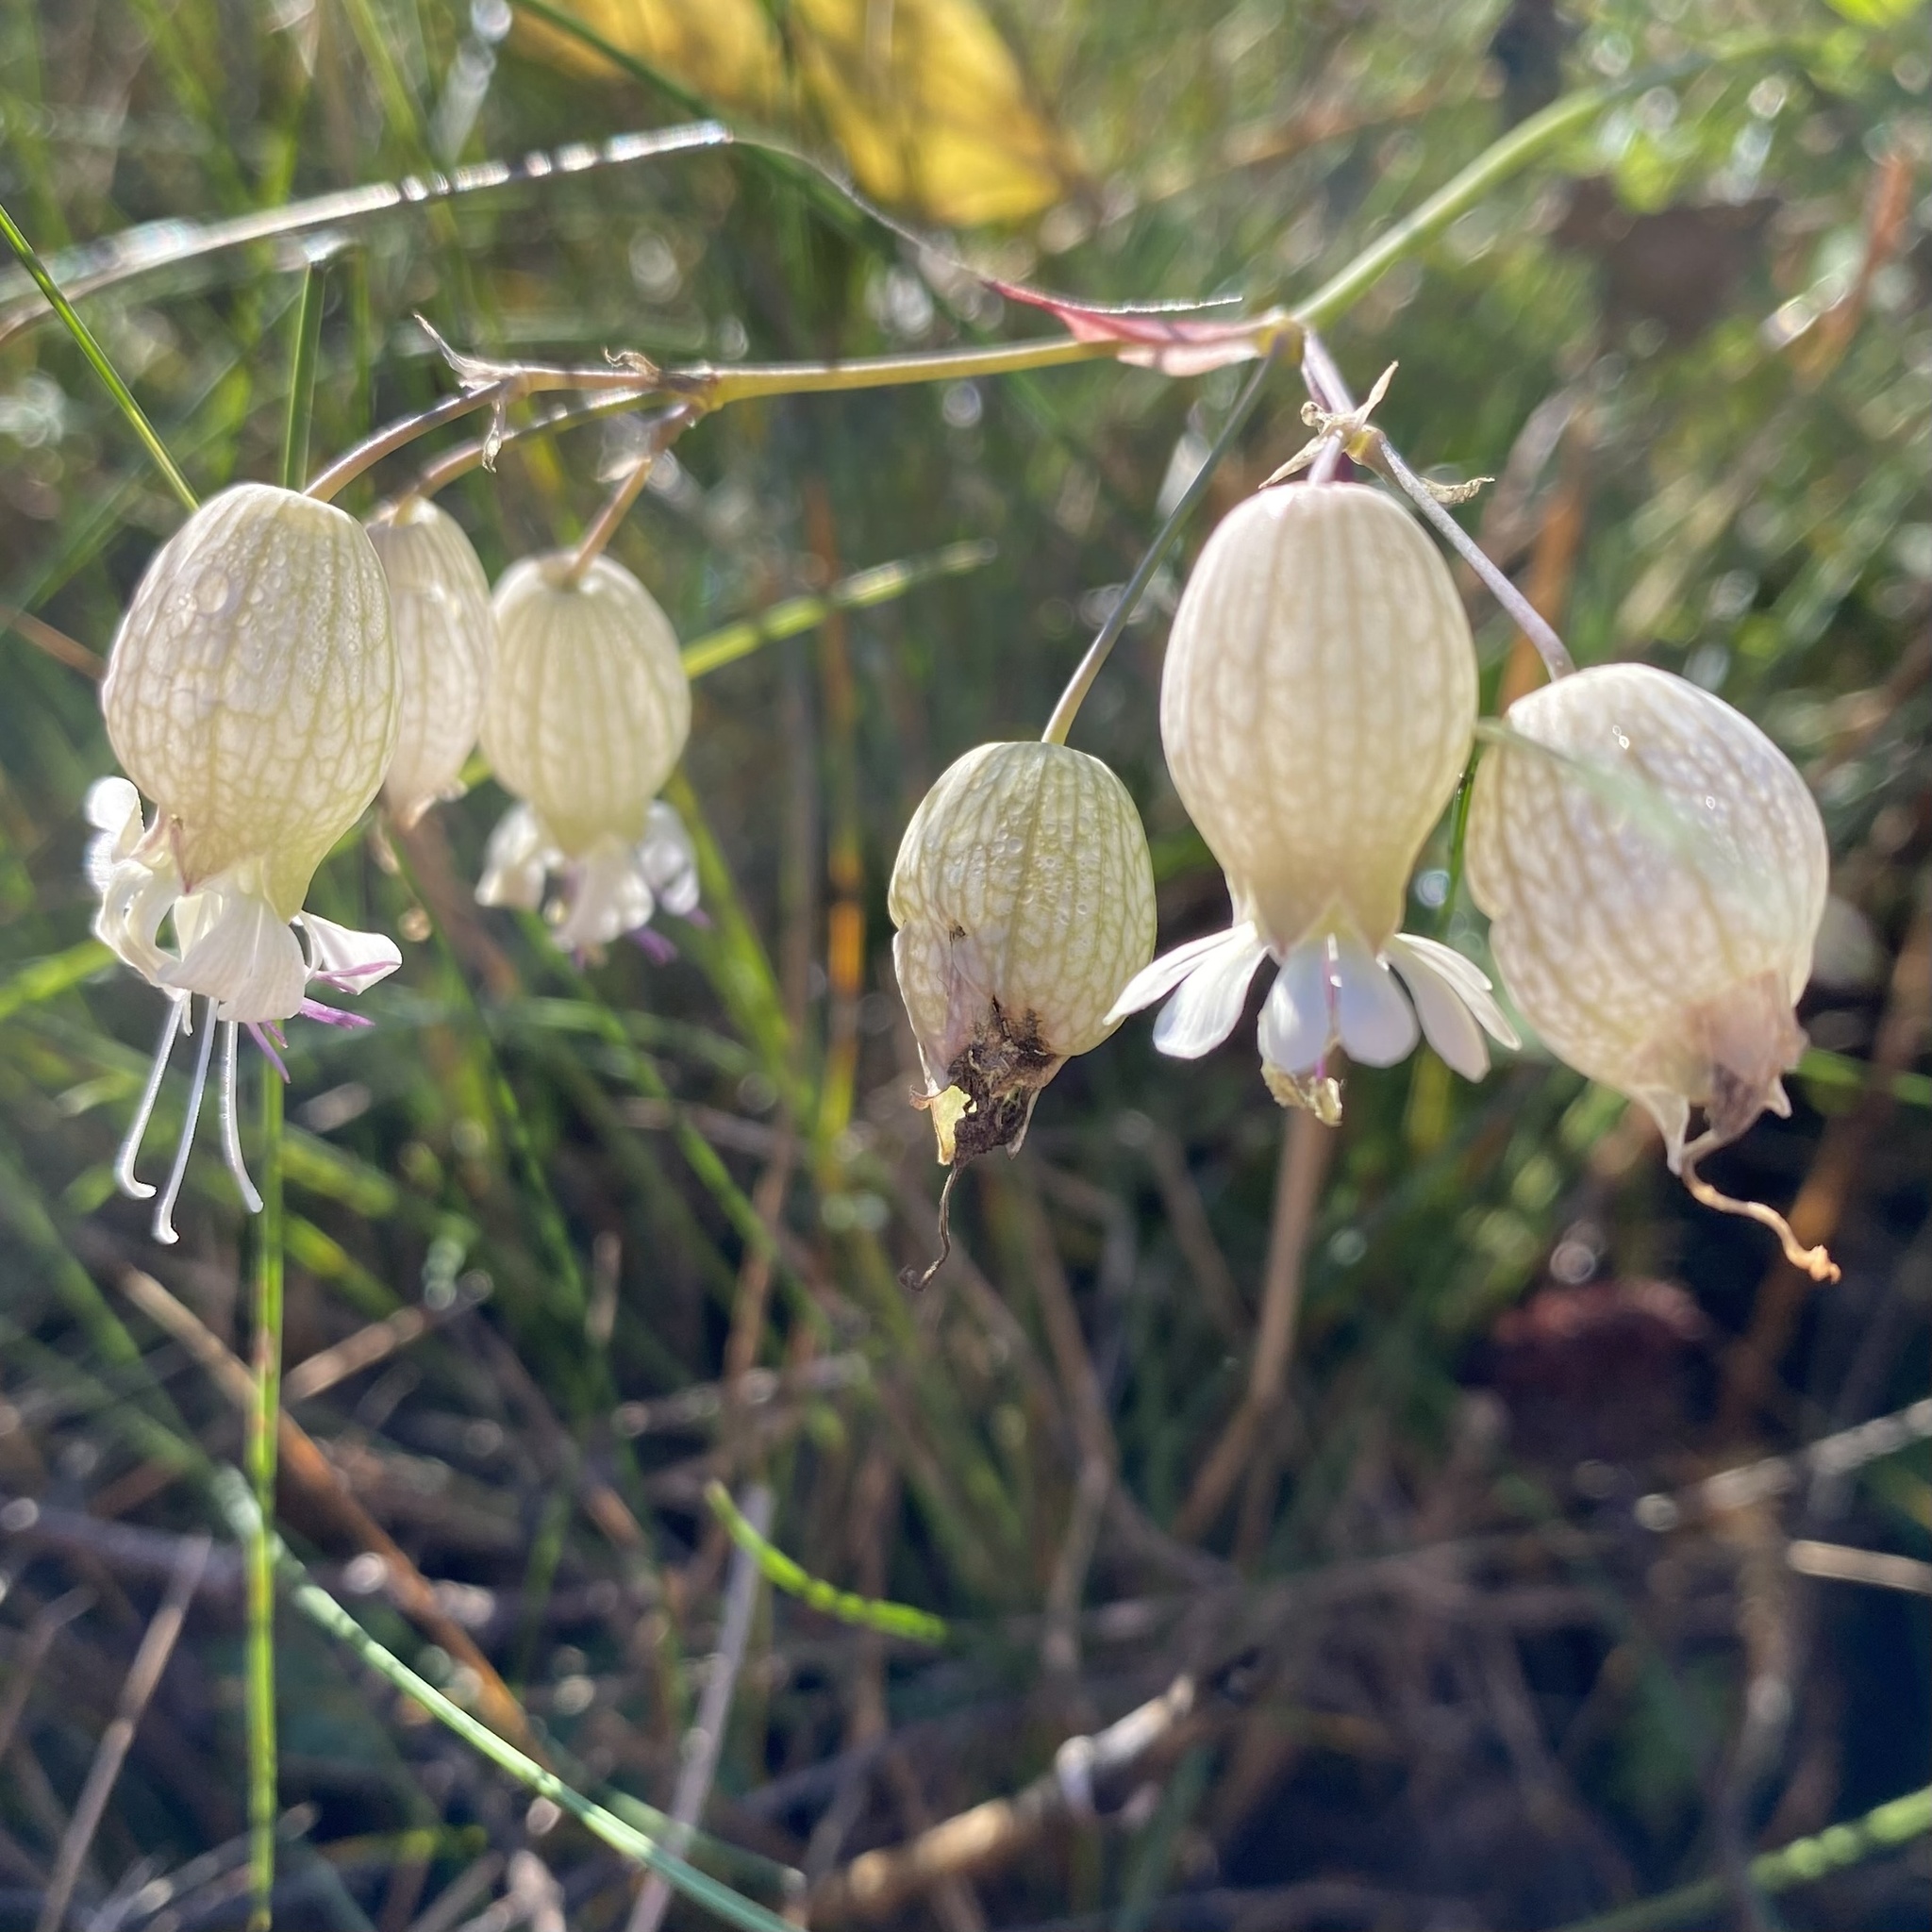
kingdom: Plantae
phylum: Tracheophyta
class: Magnoliopsida
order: Caryophyllales
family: Caryophyllaceae
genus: Silene
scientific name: Silene vulgaris
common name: Bladder campion
